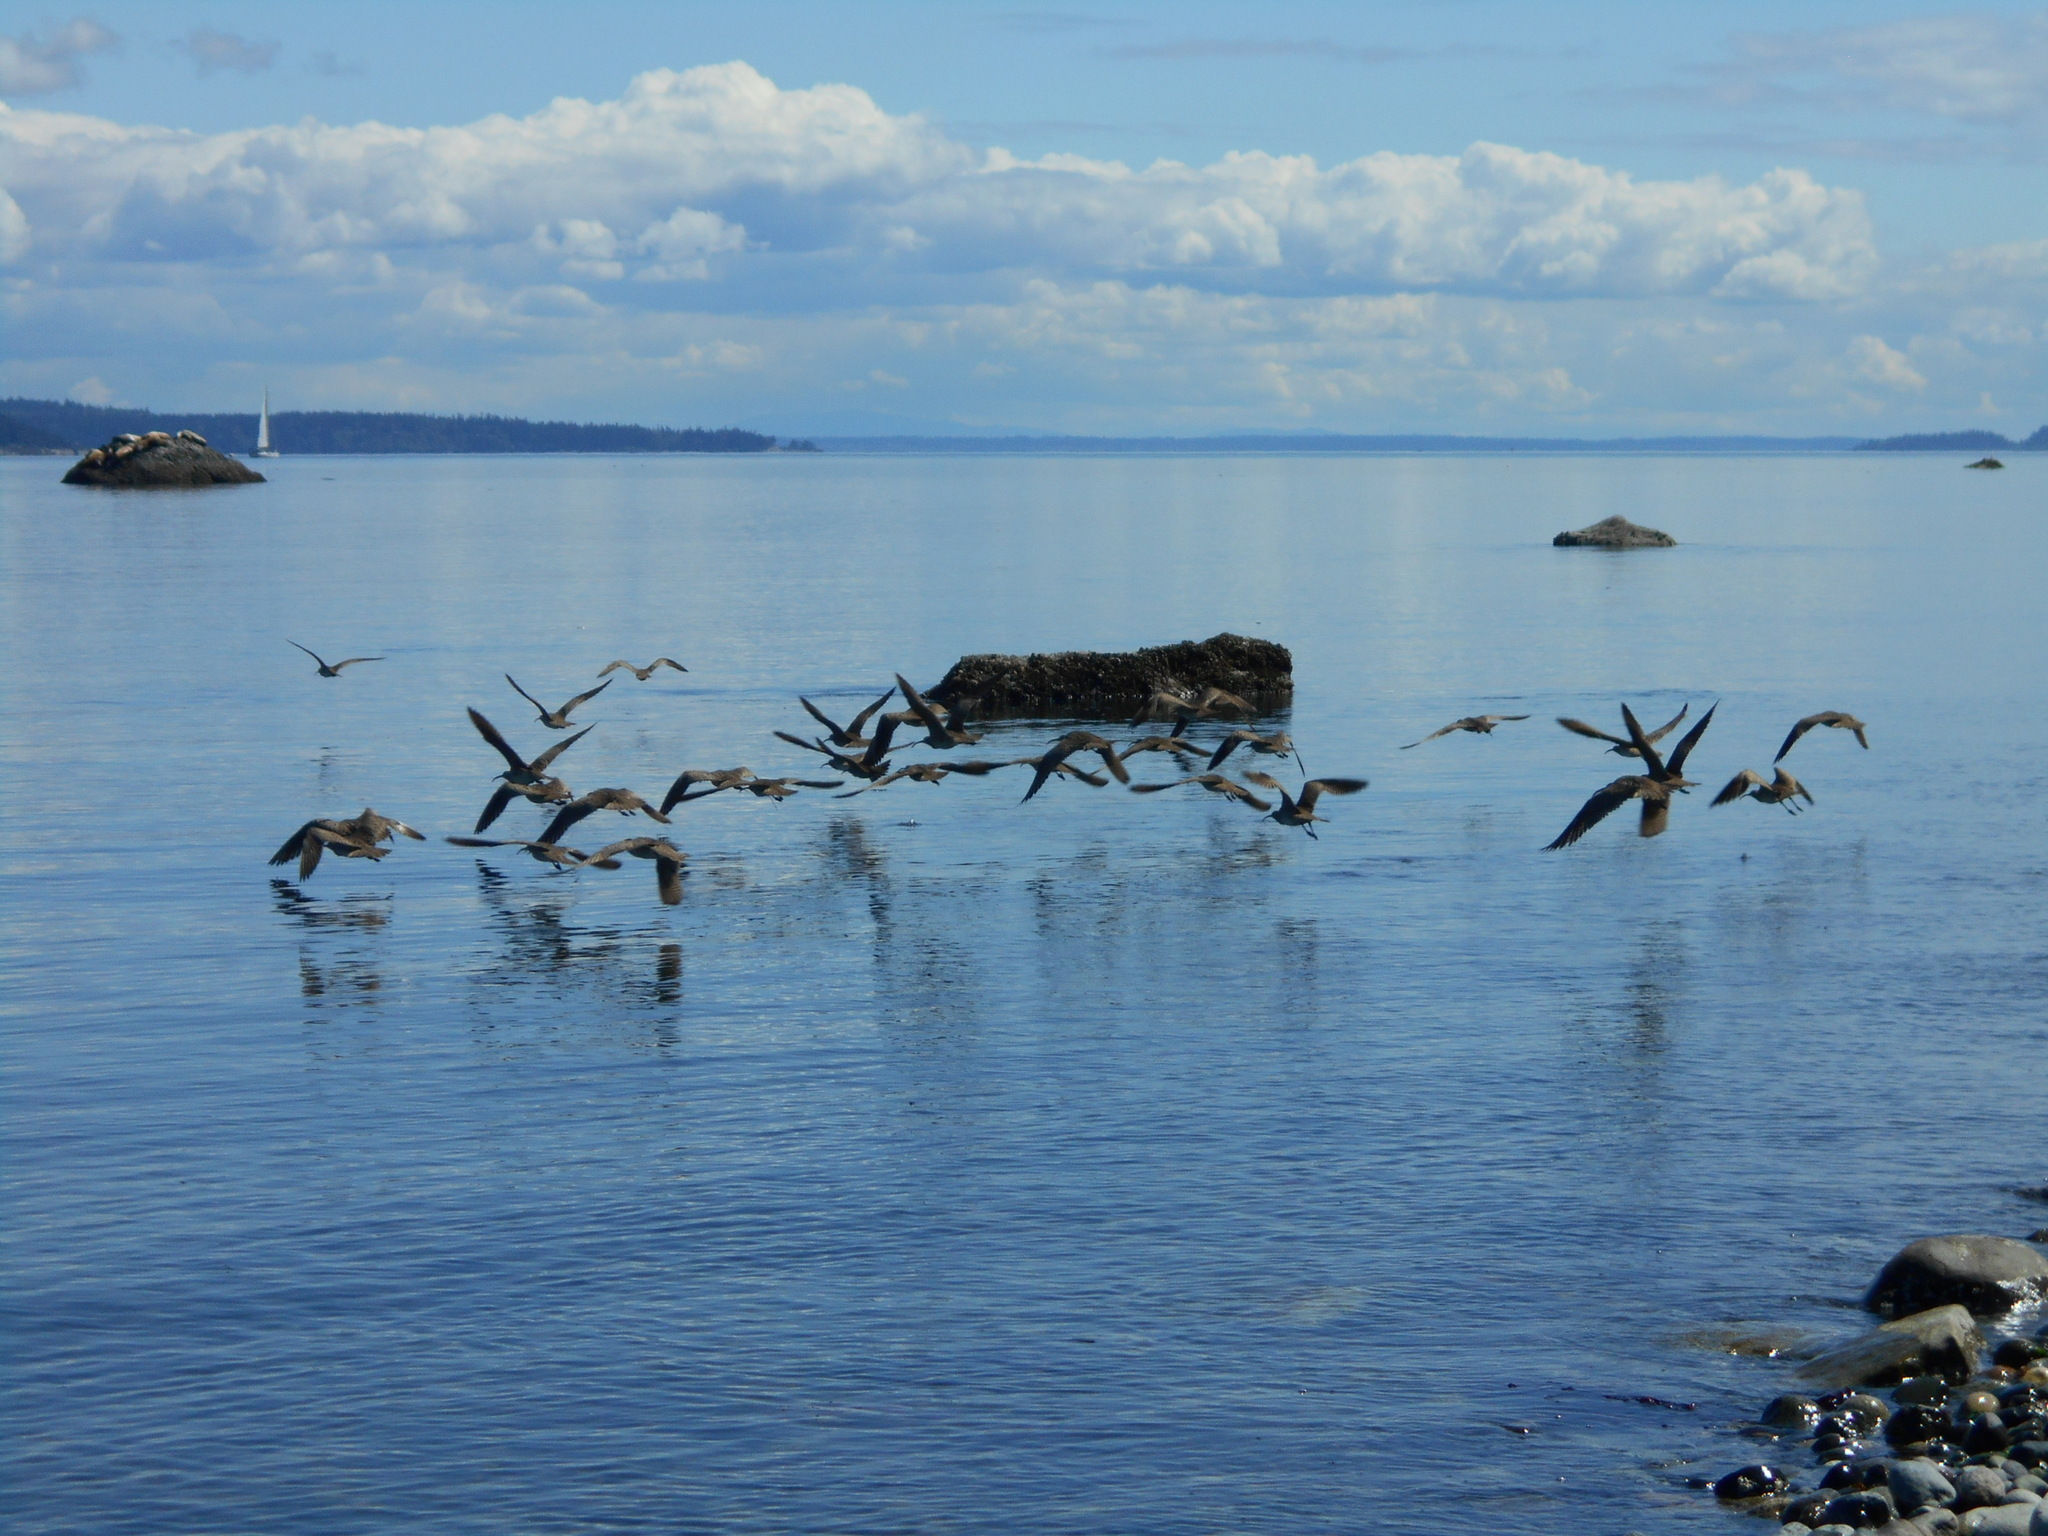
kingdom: Animalia
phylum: Chordata
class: Aves
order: Charadriiformes
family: Scolopacidae
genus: Numenius
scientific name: Numenius phaeopus
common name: Whimbrel
